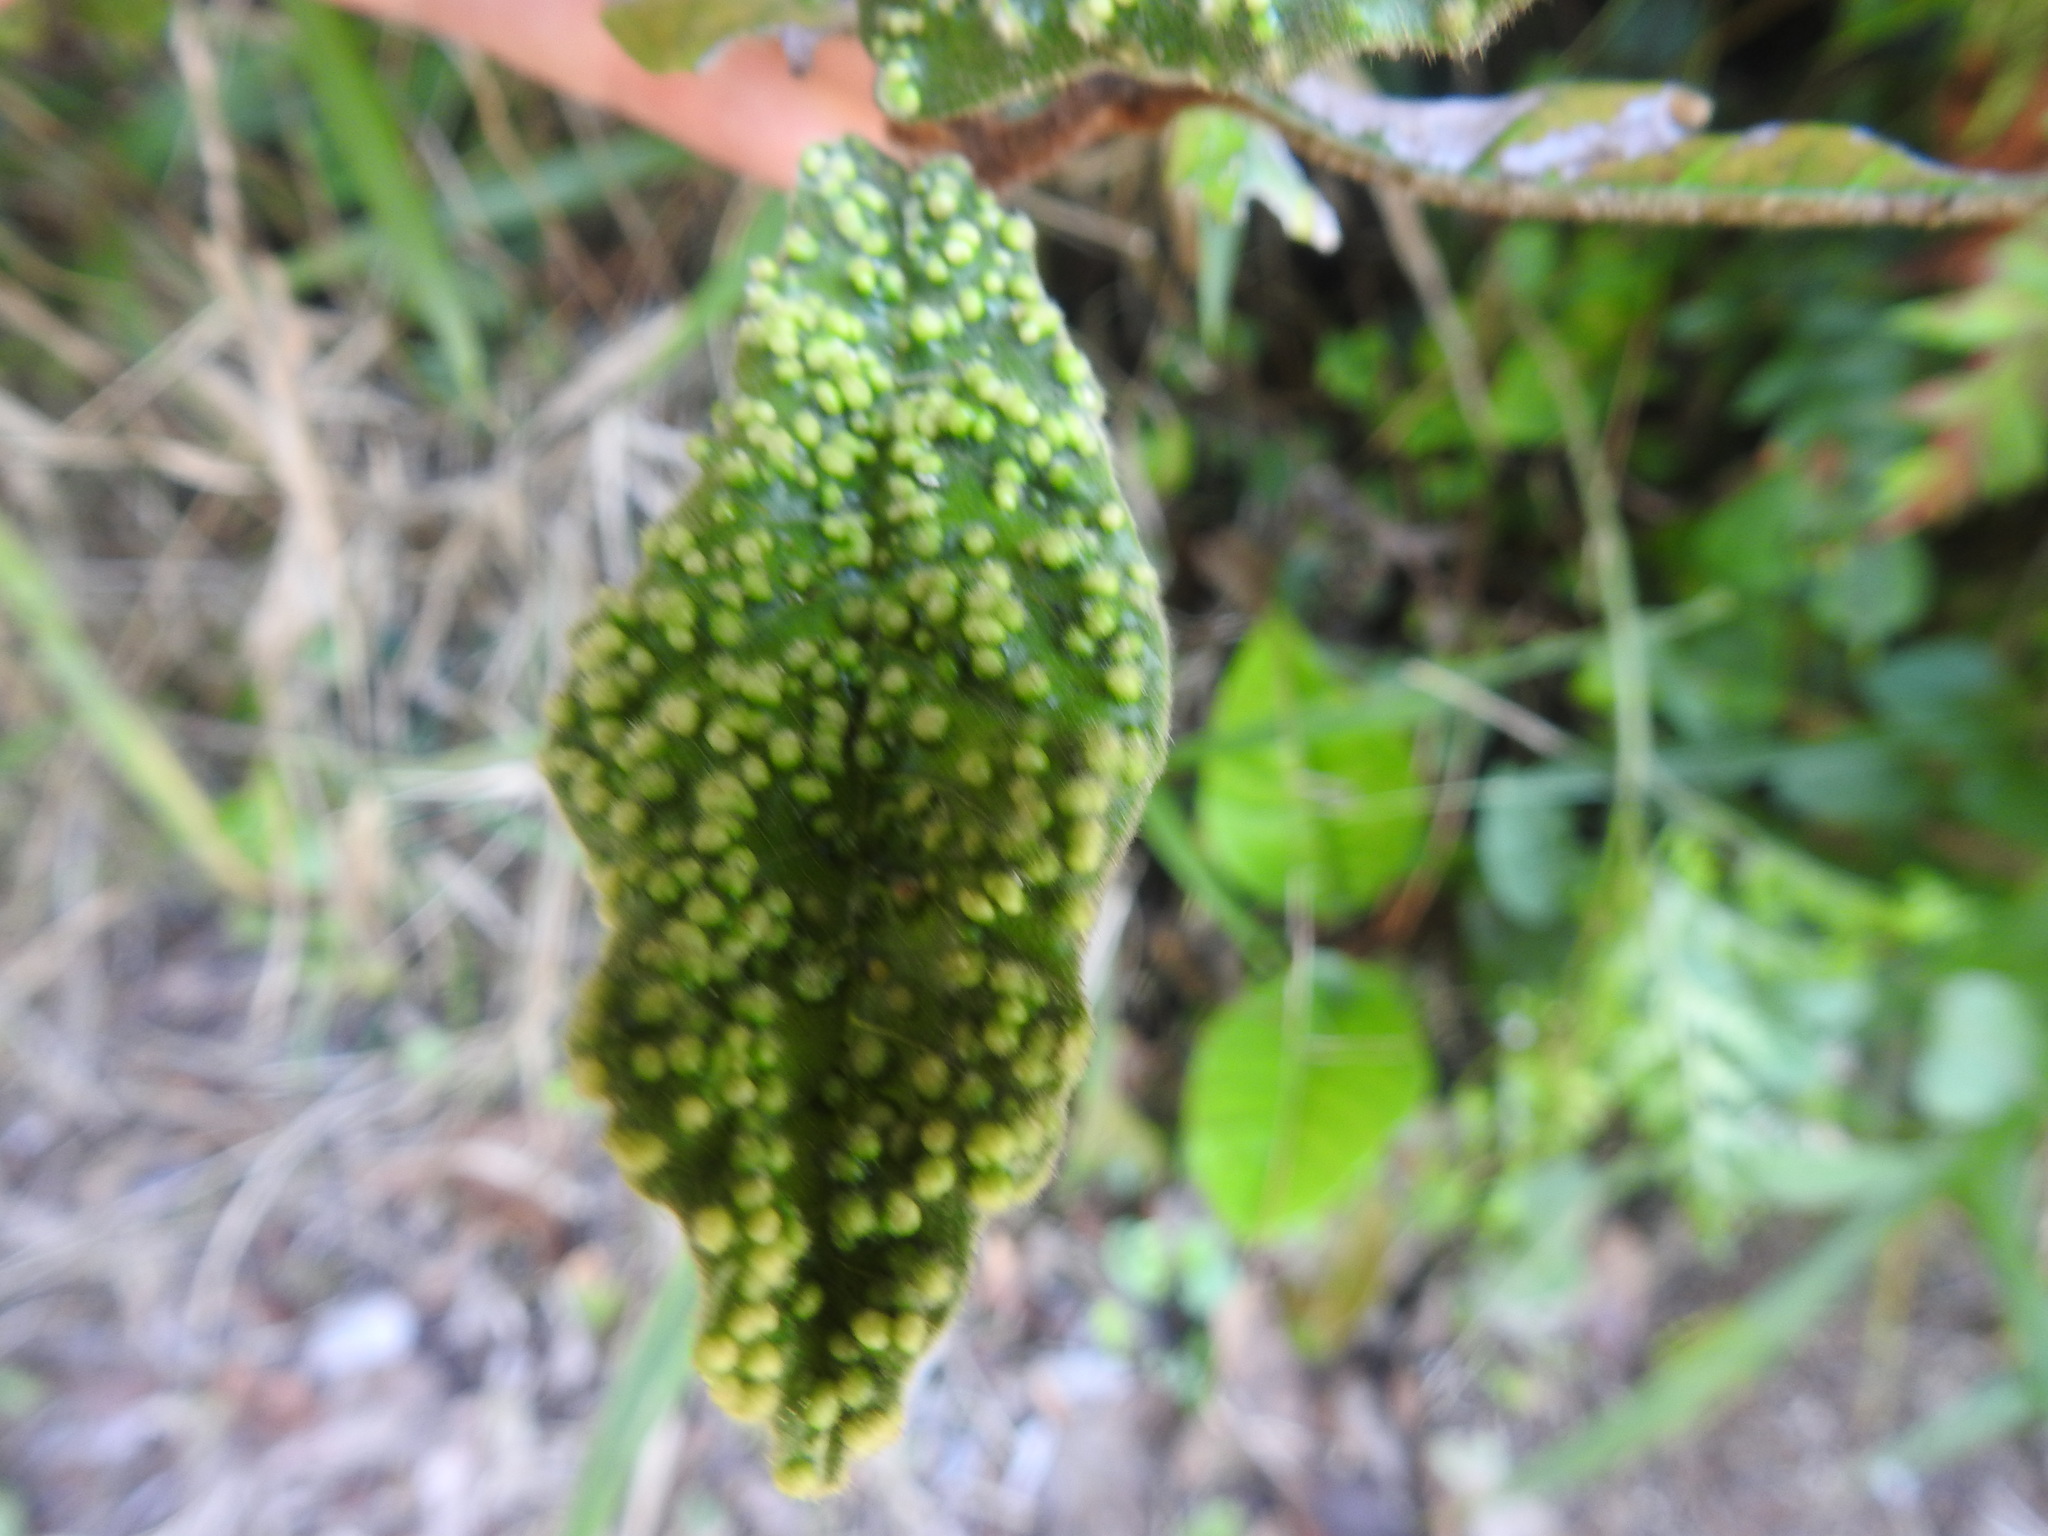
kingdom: Plantae
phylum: Tracheophyta
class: Magnoliopsida
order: Saxifragales
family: Hamamelidaceae
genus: Trichocladus
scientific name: Trichocladus crinitus
